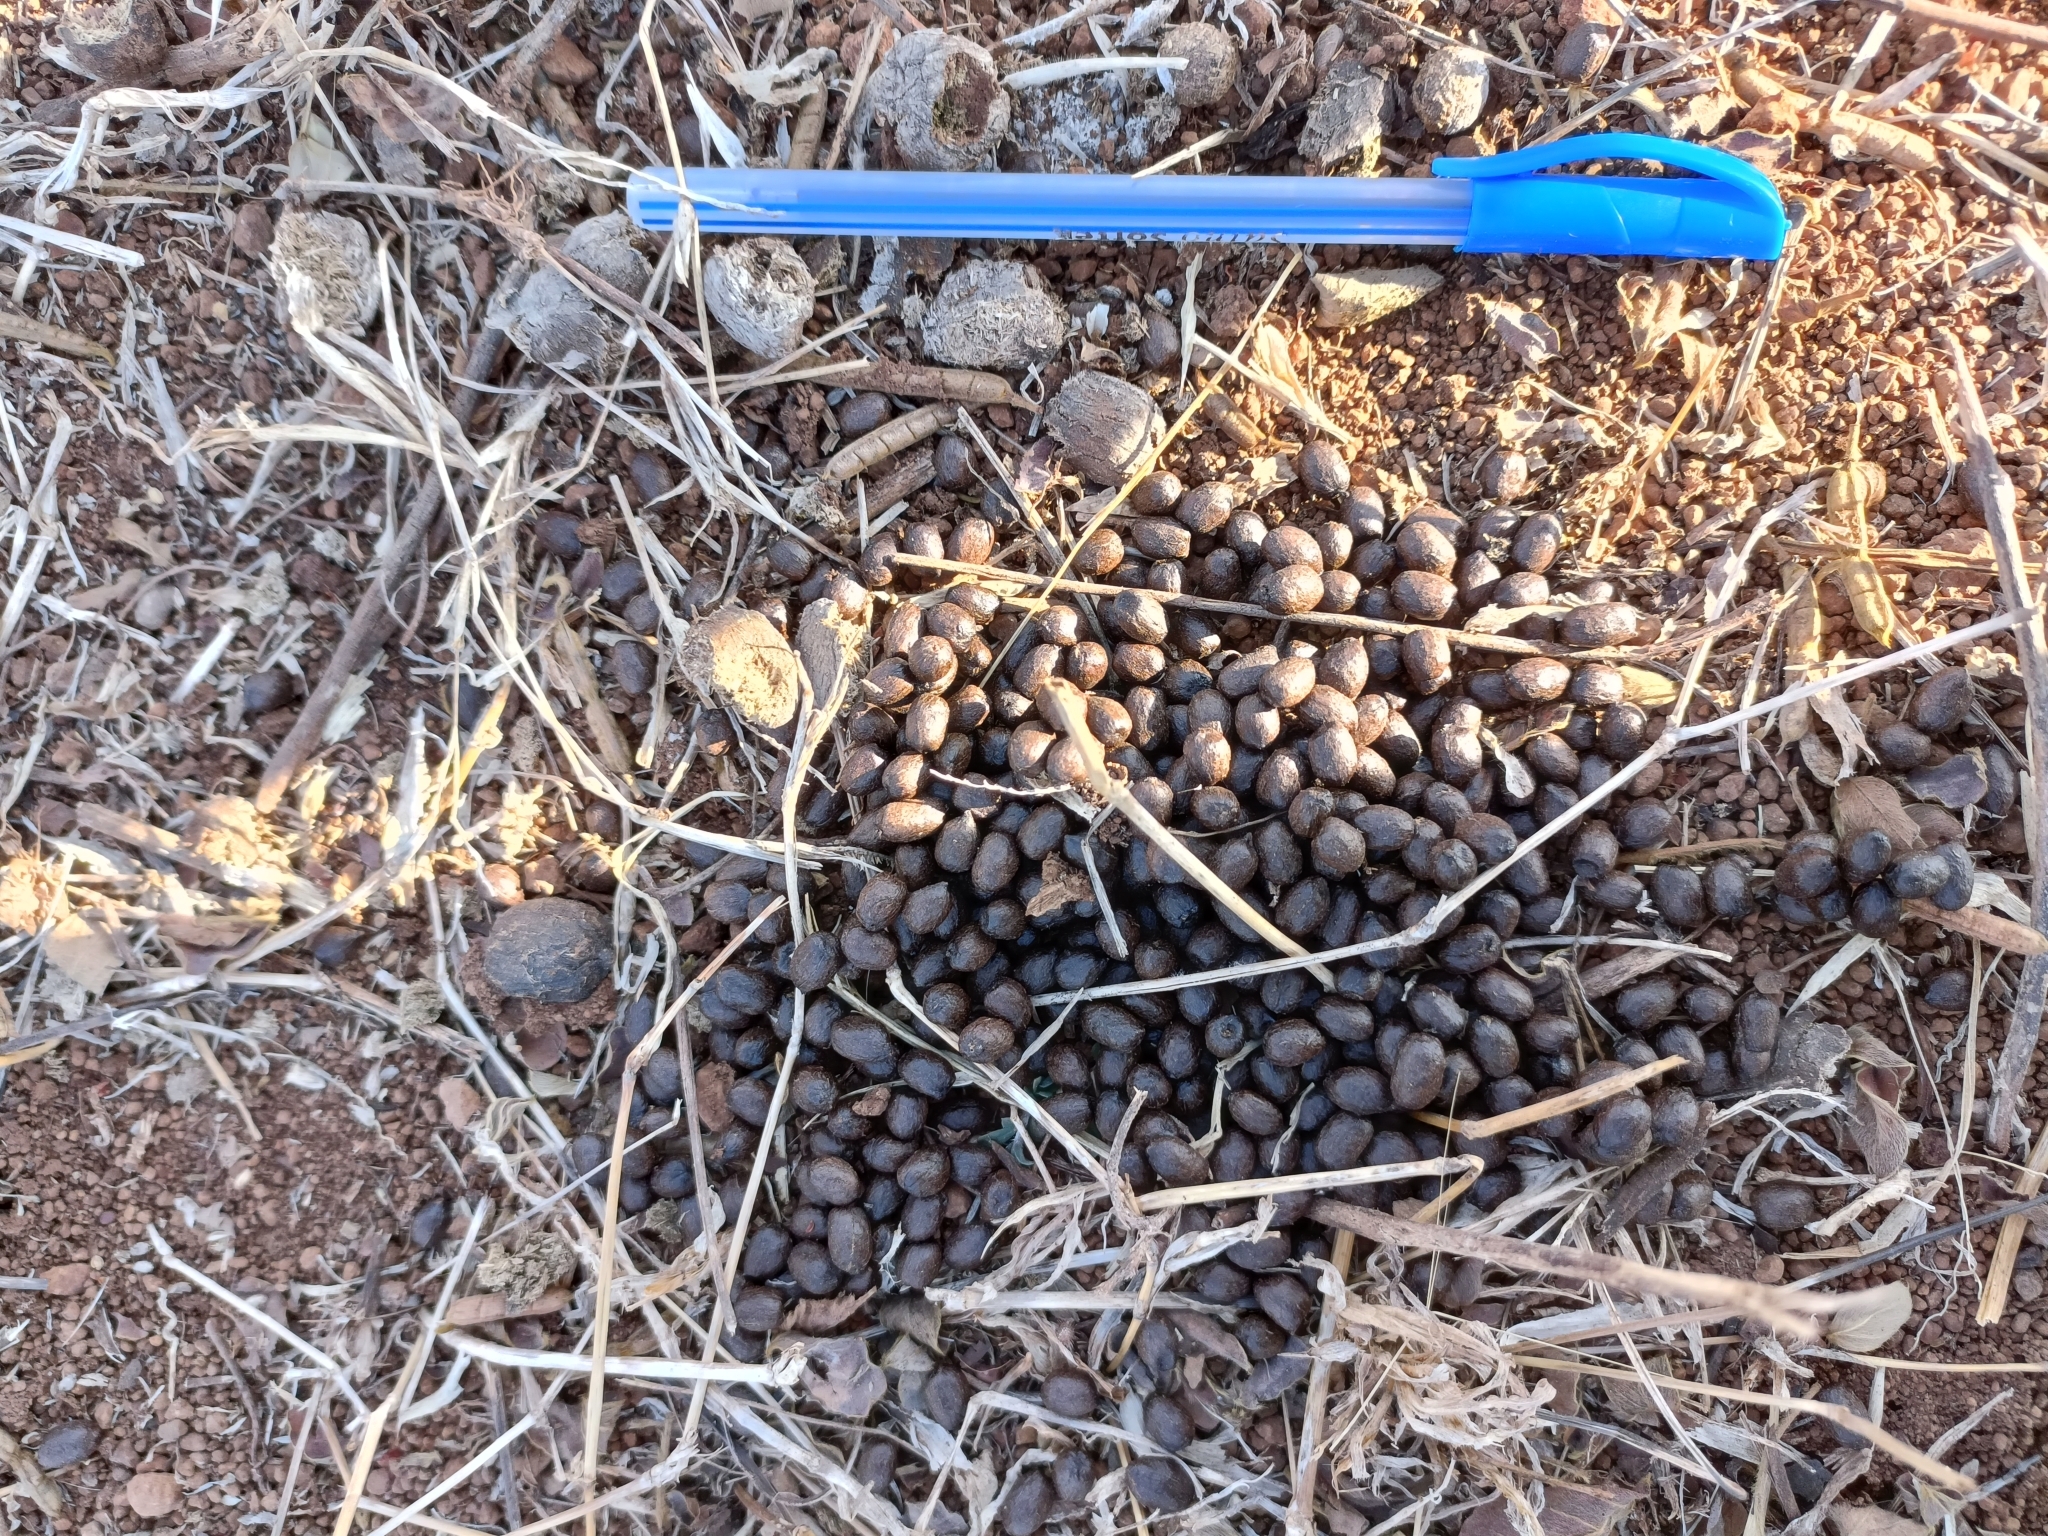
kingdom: Animalia
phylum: Chordata
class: Mammalia
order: Artiodactyla
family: Bovidae
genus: Gazella
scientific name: Gazella bennettii
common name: Indian gazelle
